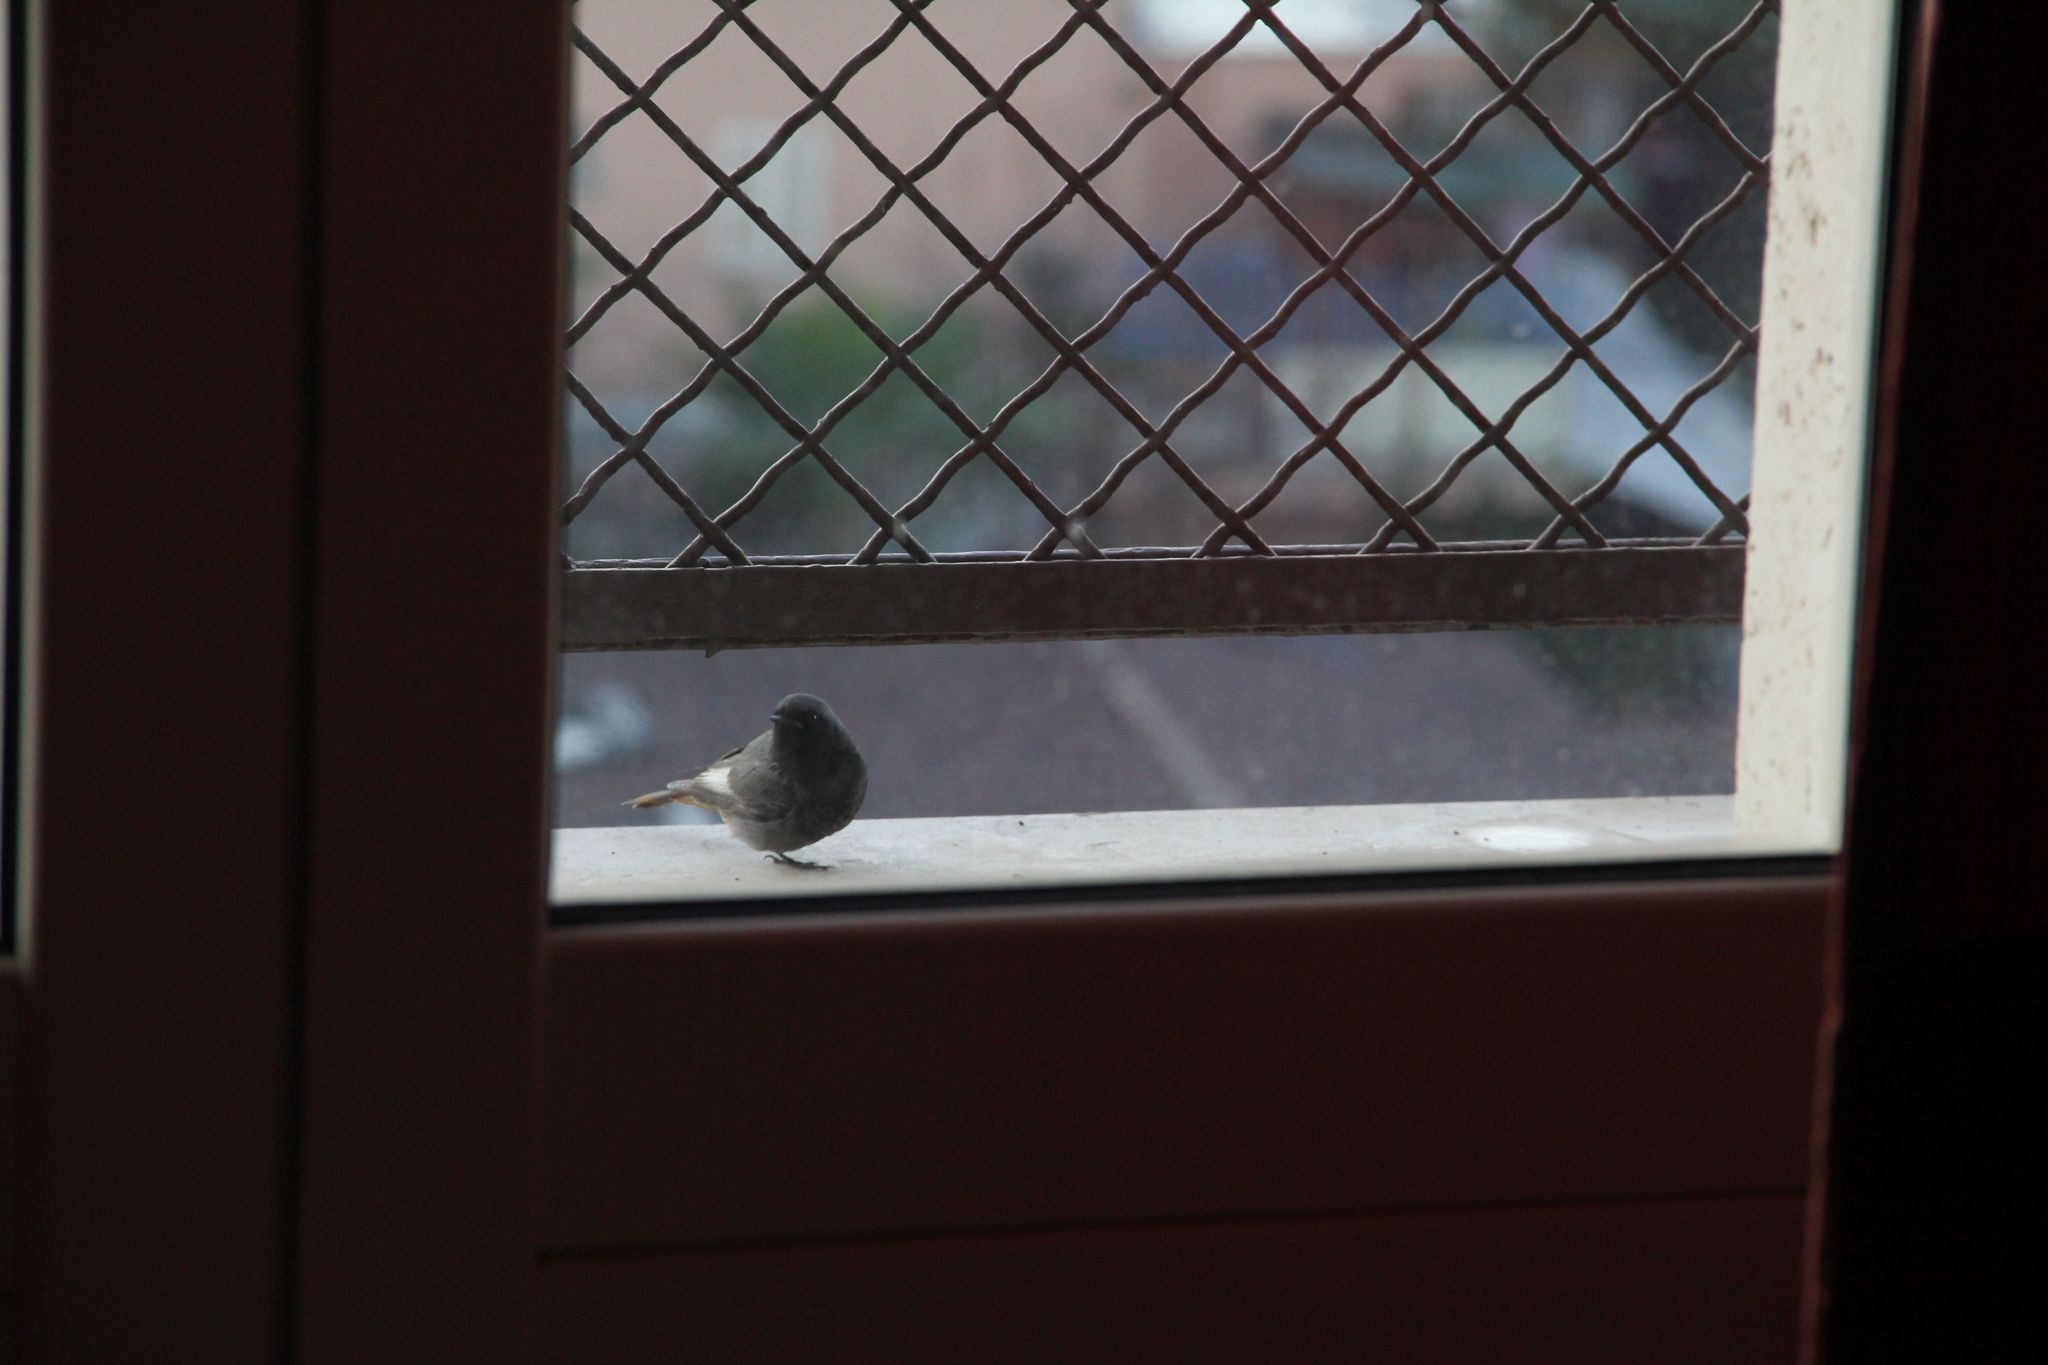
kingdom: Animalia
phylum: Chordata
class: Aves
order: Passeriformes
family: Muscicapidae
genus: Phoenicurus
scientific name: Phoenicurus ochruros
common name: Black redstart
